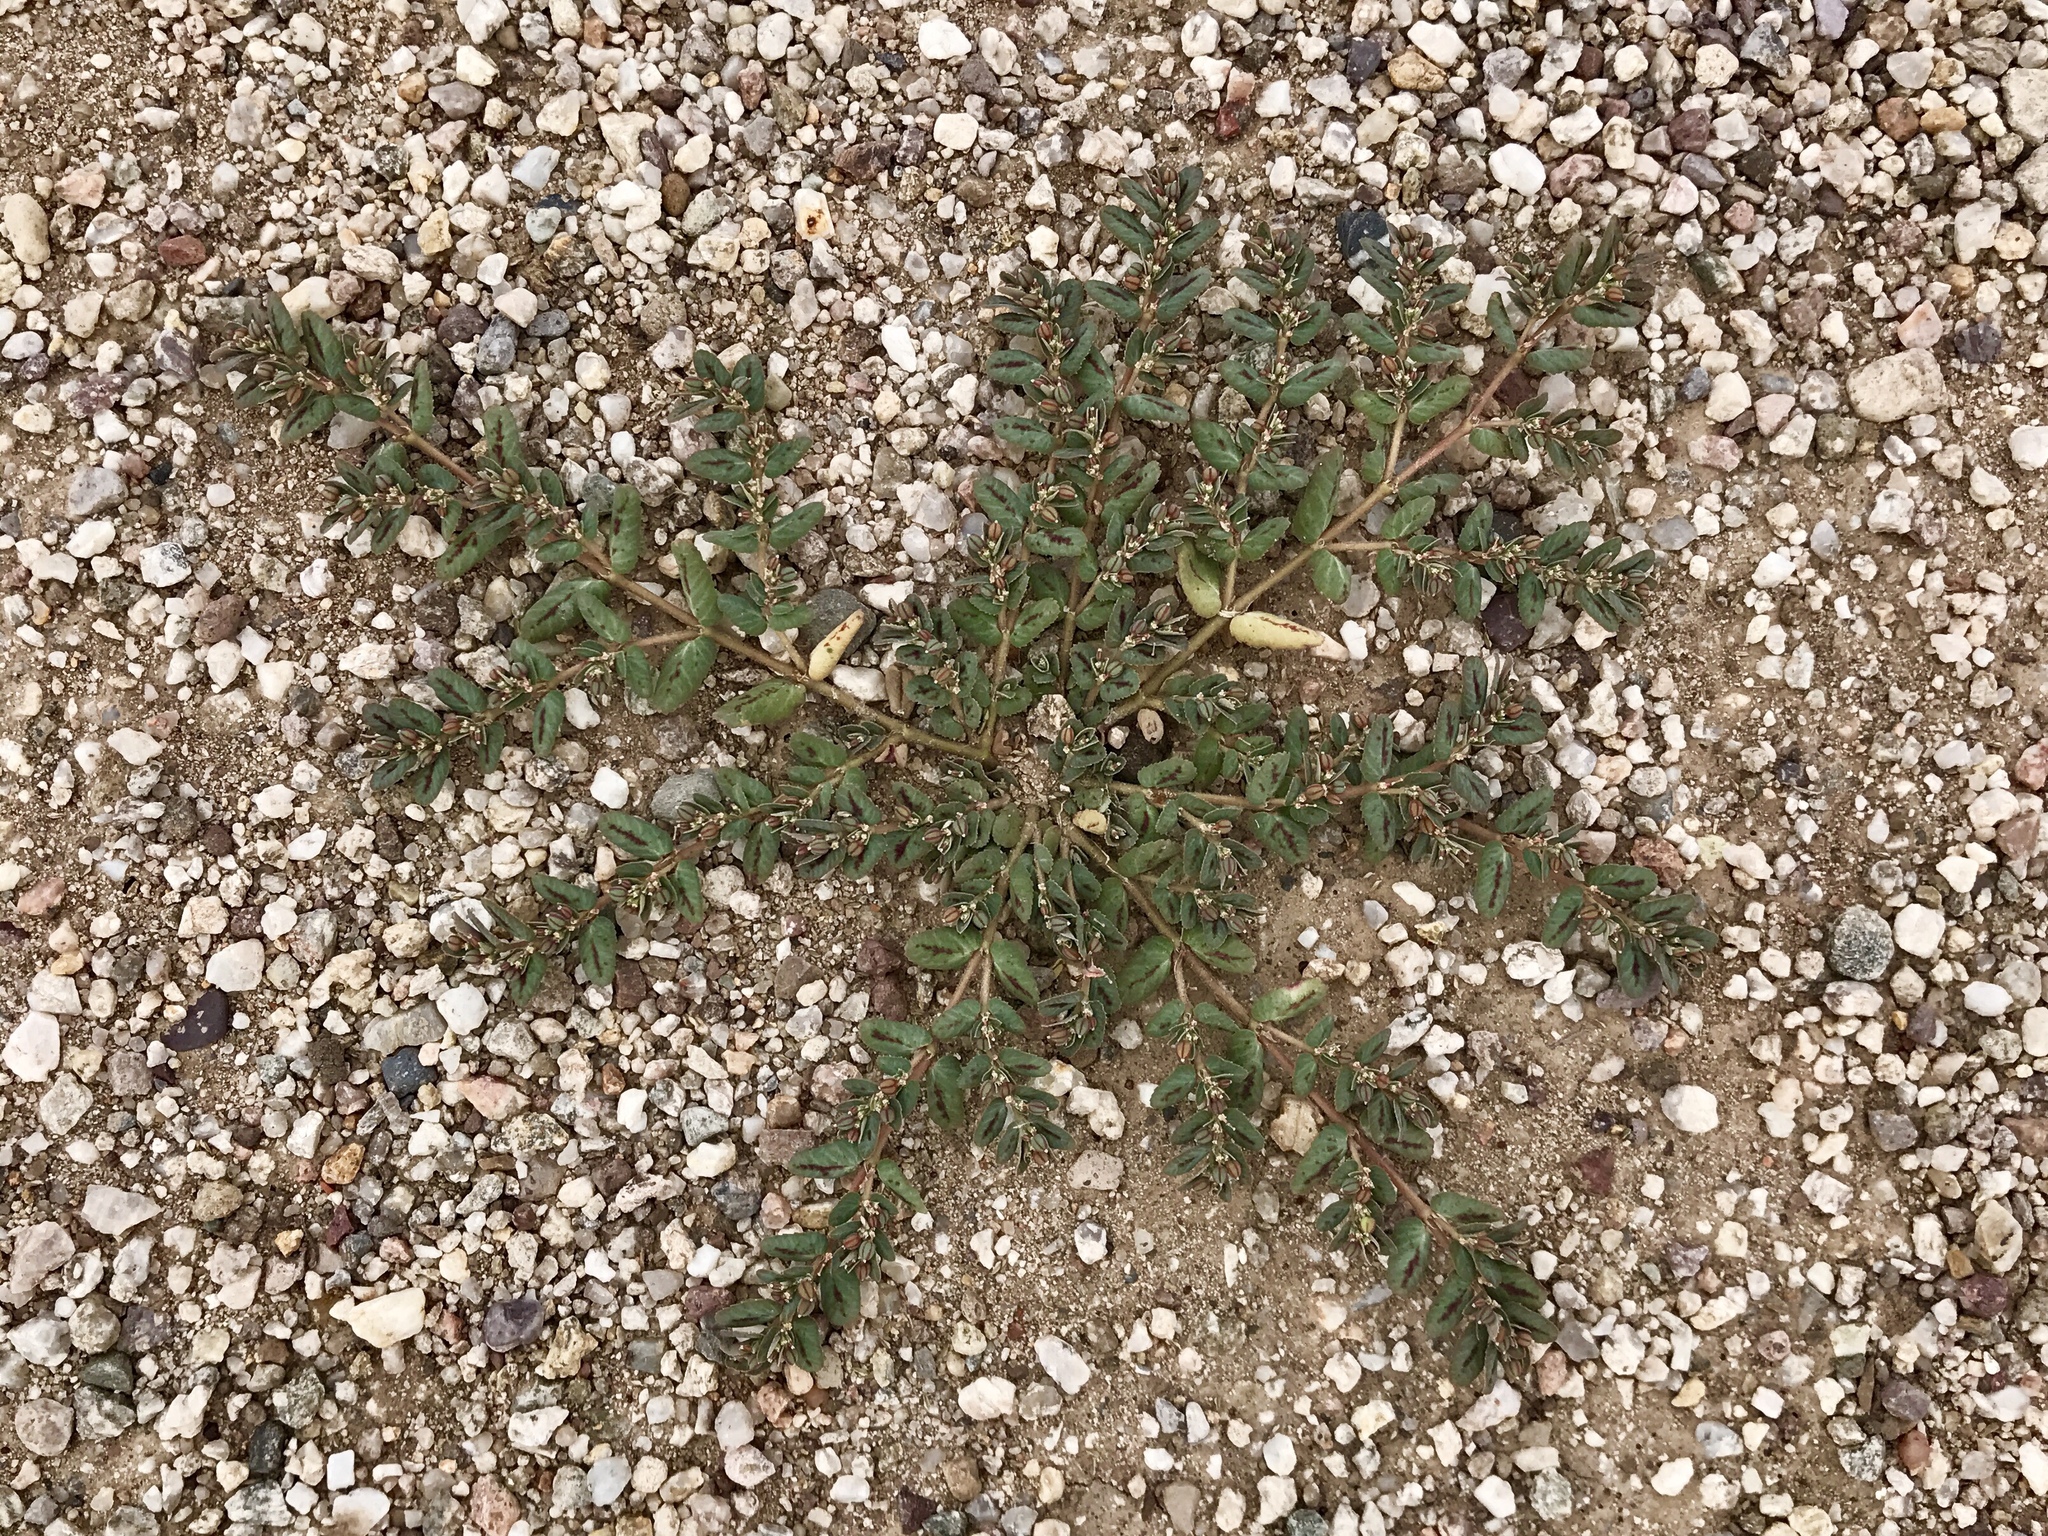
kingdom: Plantae
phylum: Tracheophyta
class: Magnoliopsida
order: Malpighiales
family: Euphorbiaceae
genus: Euphorbia
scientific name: Euphorbia abramsiana
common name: Abram's spurge
